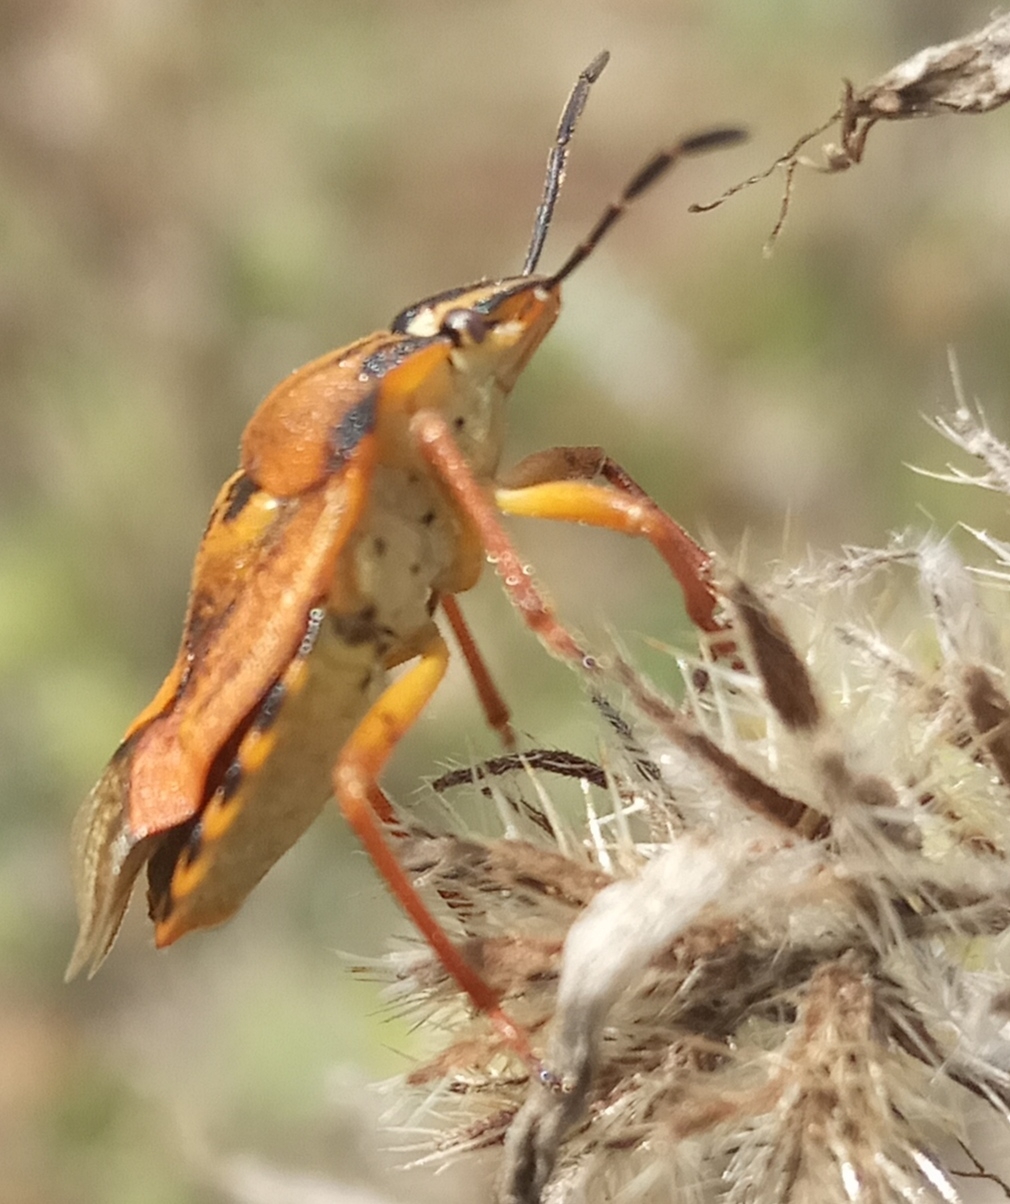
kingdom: Animalia
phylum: Arthropoda
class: Insecta
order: Hemiptera
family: Pentatomidae
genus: Carpocoris
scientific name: Carpocoris purpureipennis
